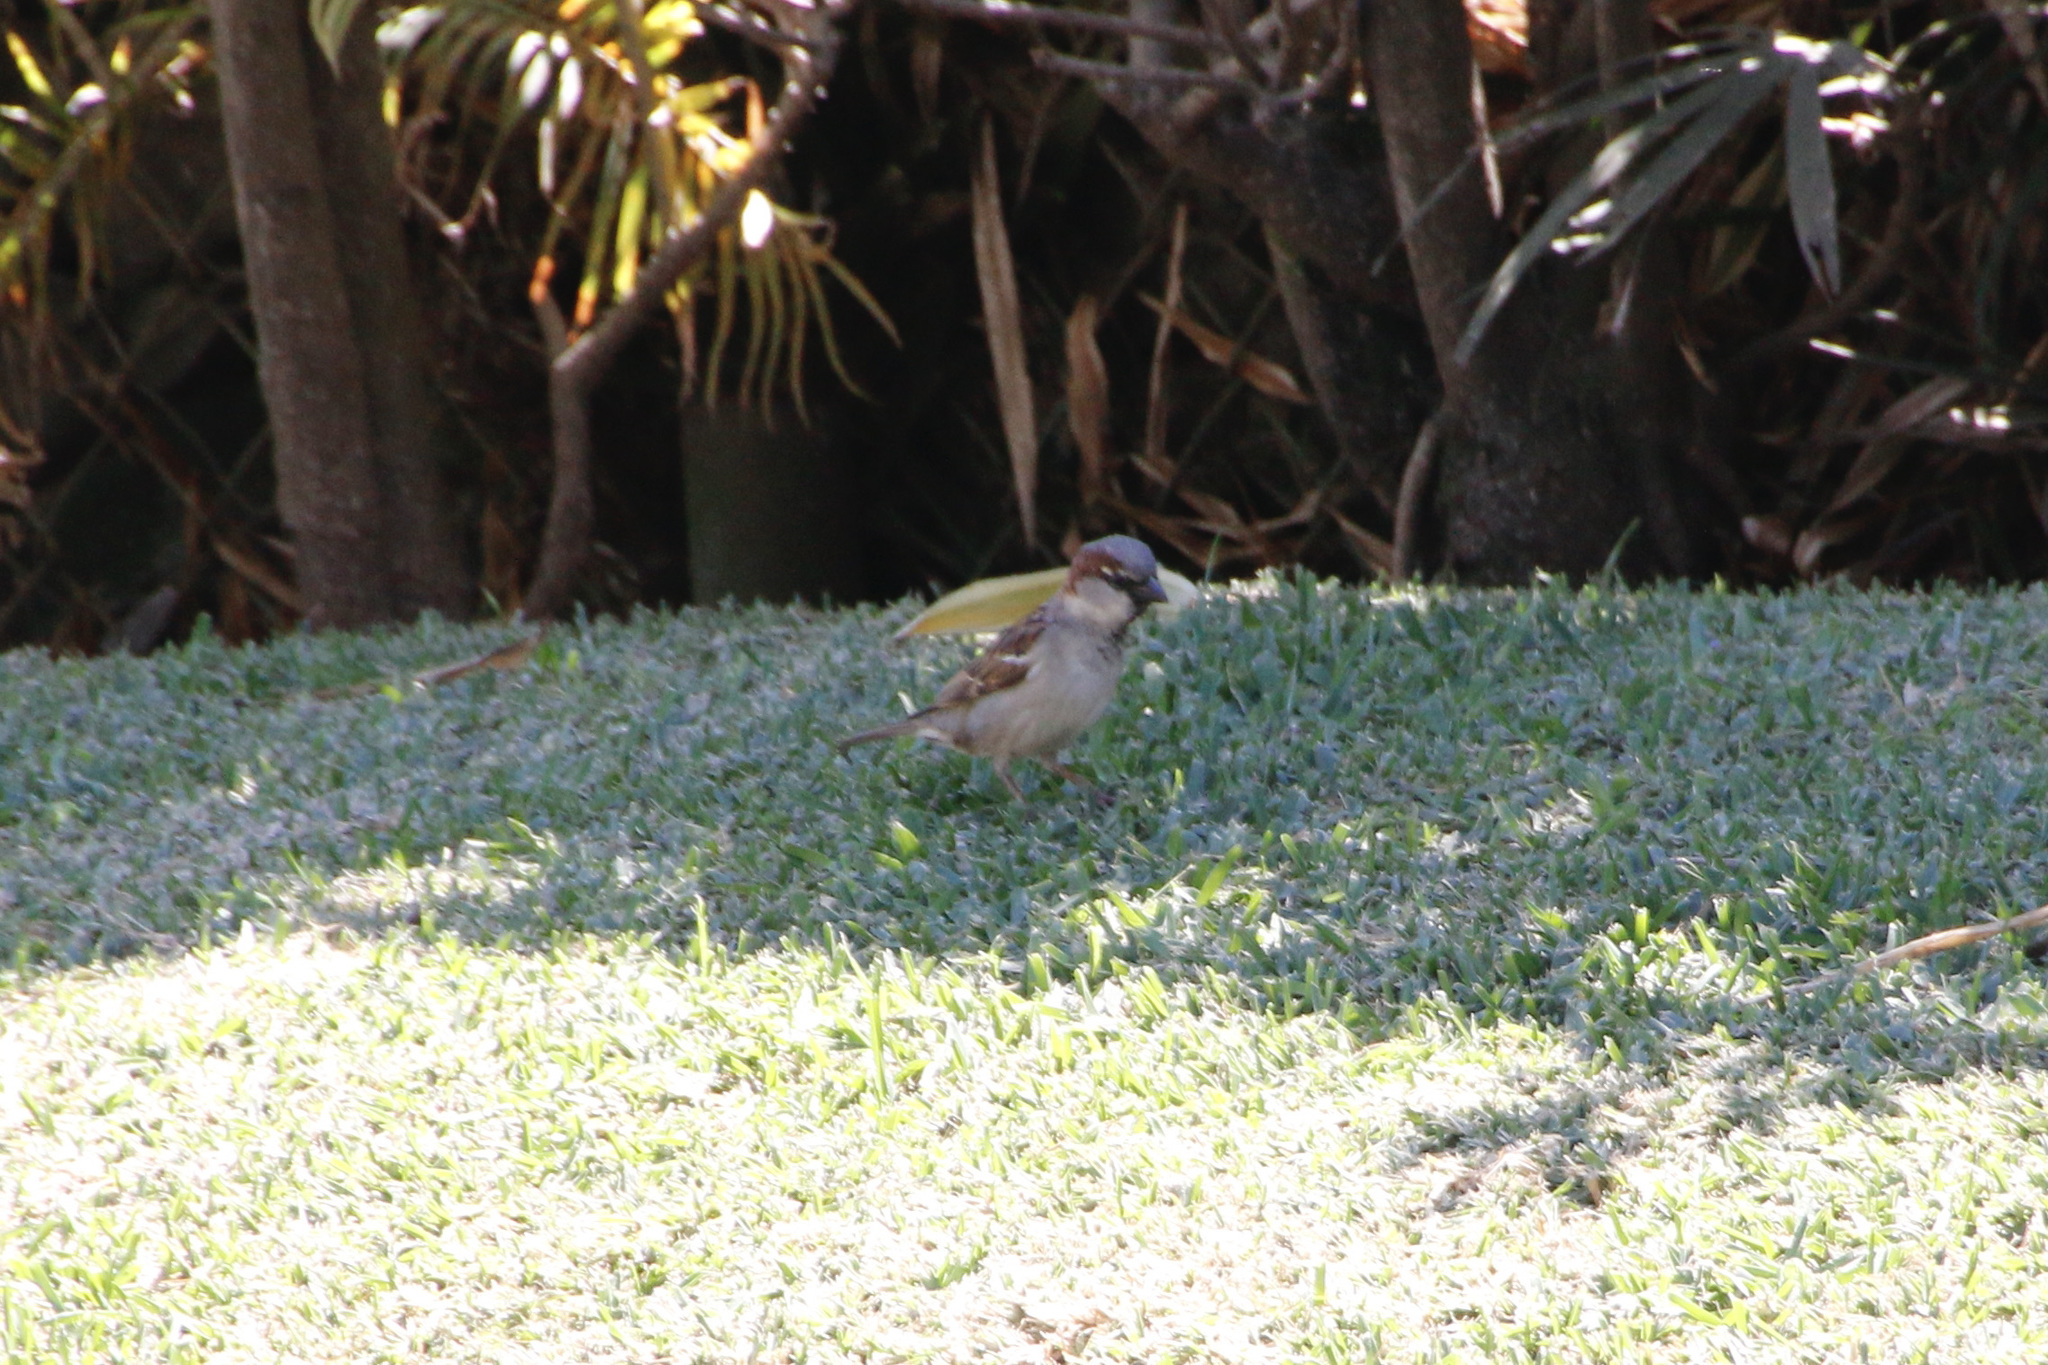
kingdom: Animalia
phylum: Chordata
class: Aves
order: Passeriformes
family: Passeridae
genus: Passer
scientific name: Passer domesticus
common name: House sparrow
